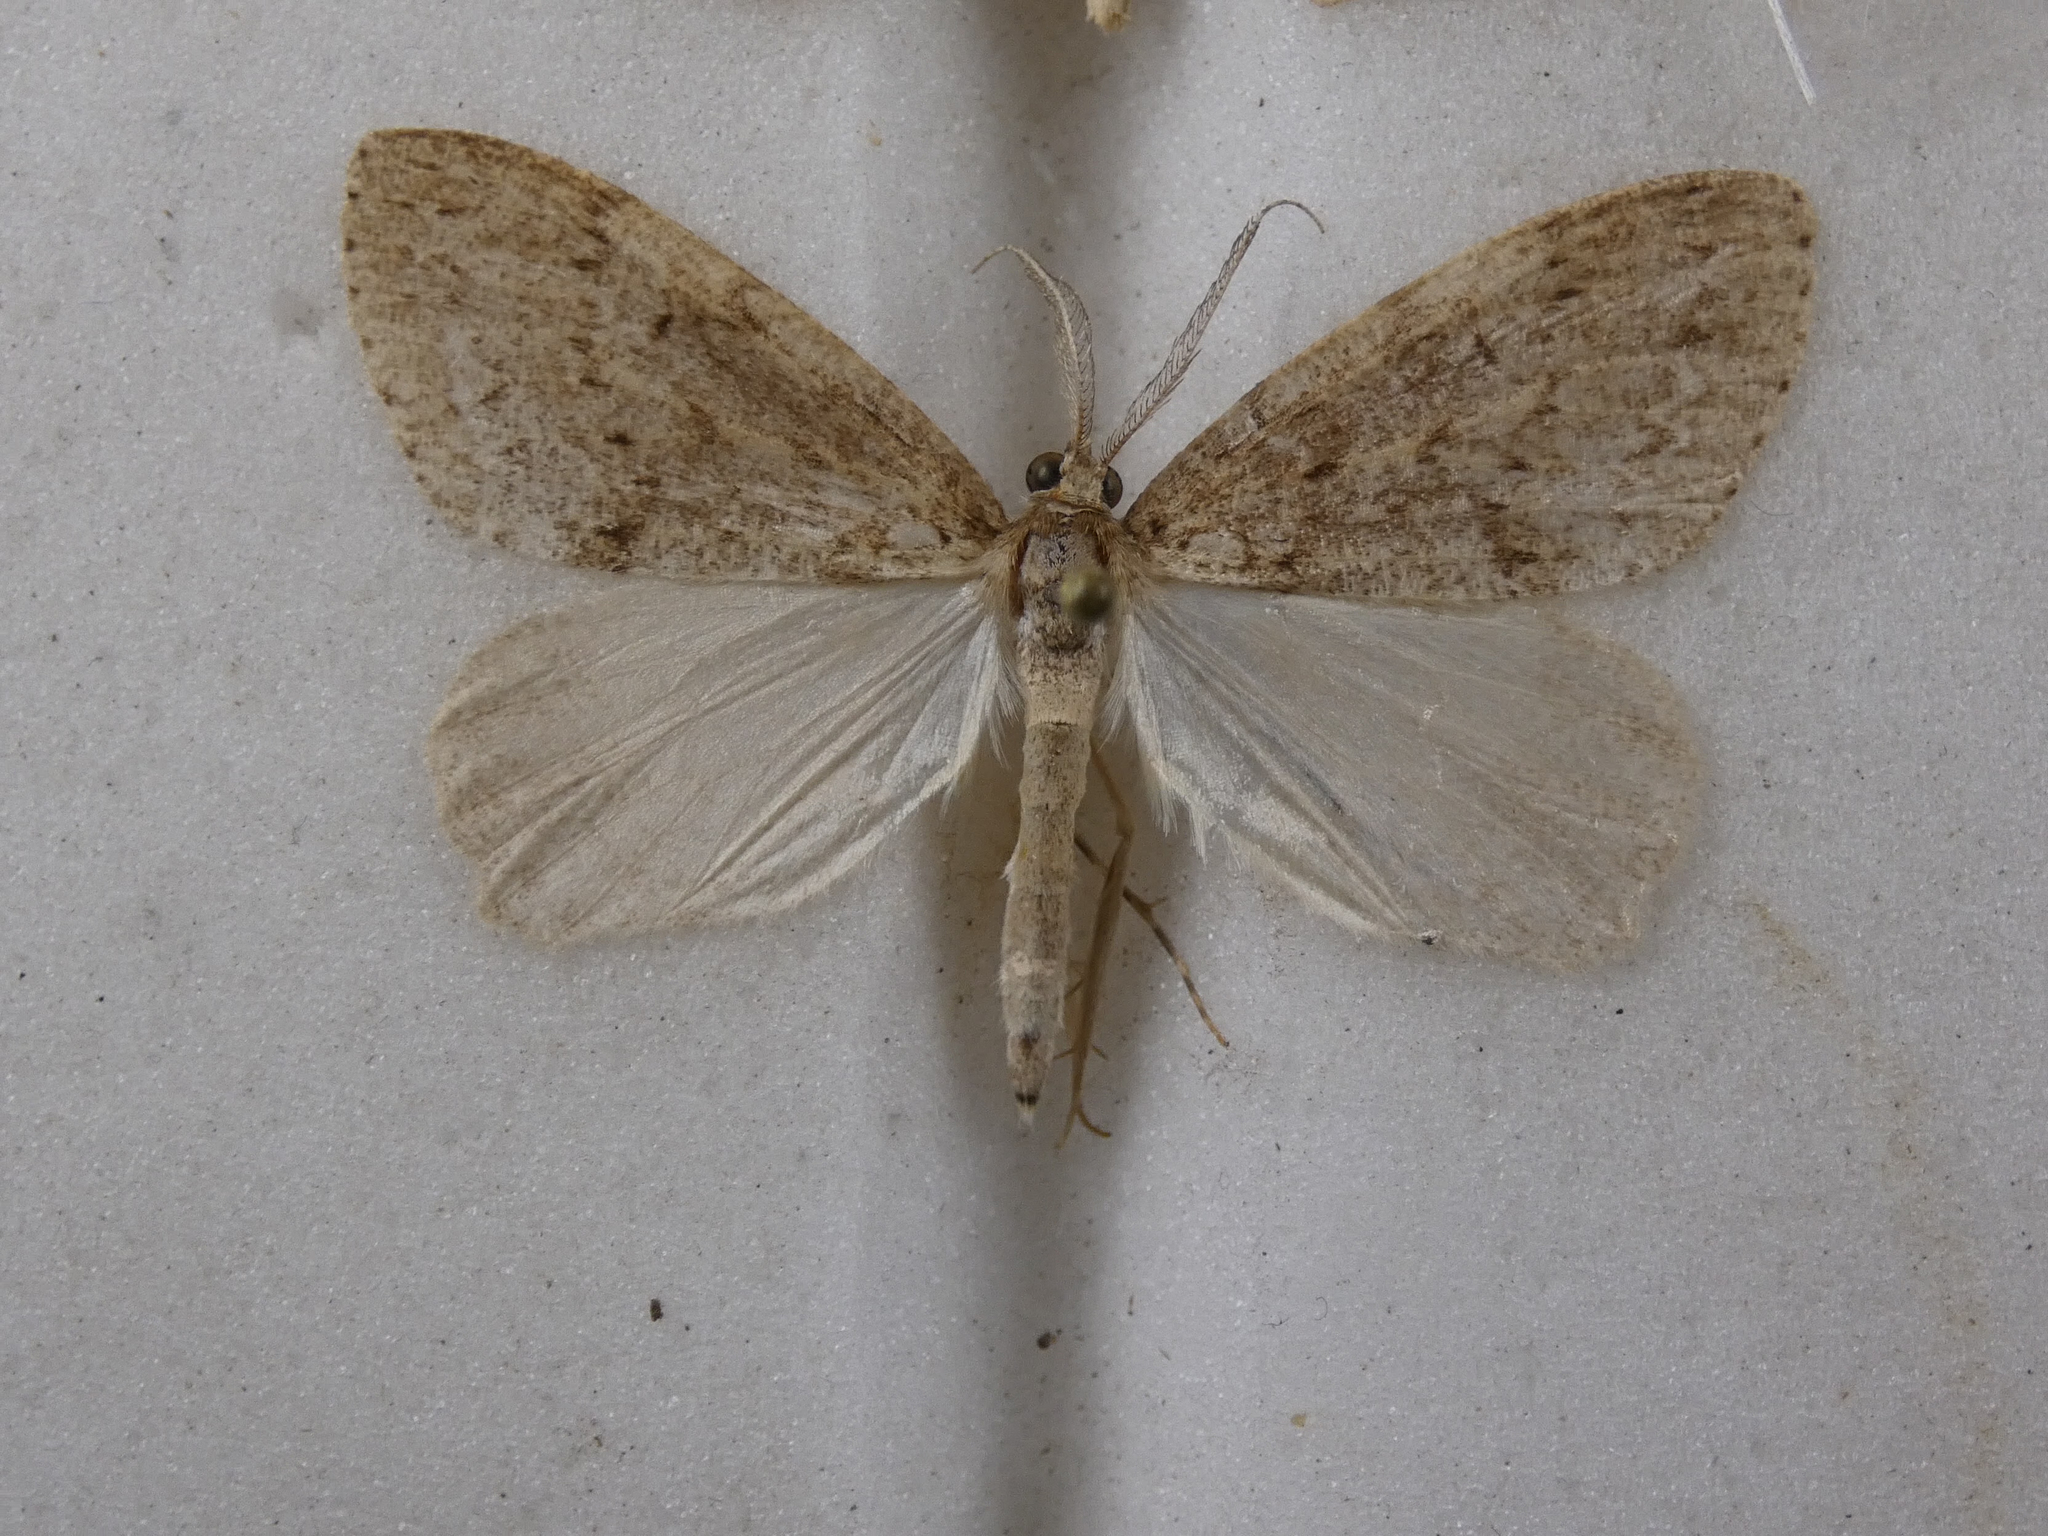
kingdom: Animalia
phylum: Arthropoda
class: Insecta
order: Lepidoptera
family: Geometridae
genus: Pseudocoremia
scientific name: Pseudocoremia fenerata
